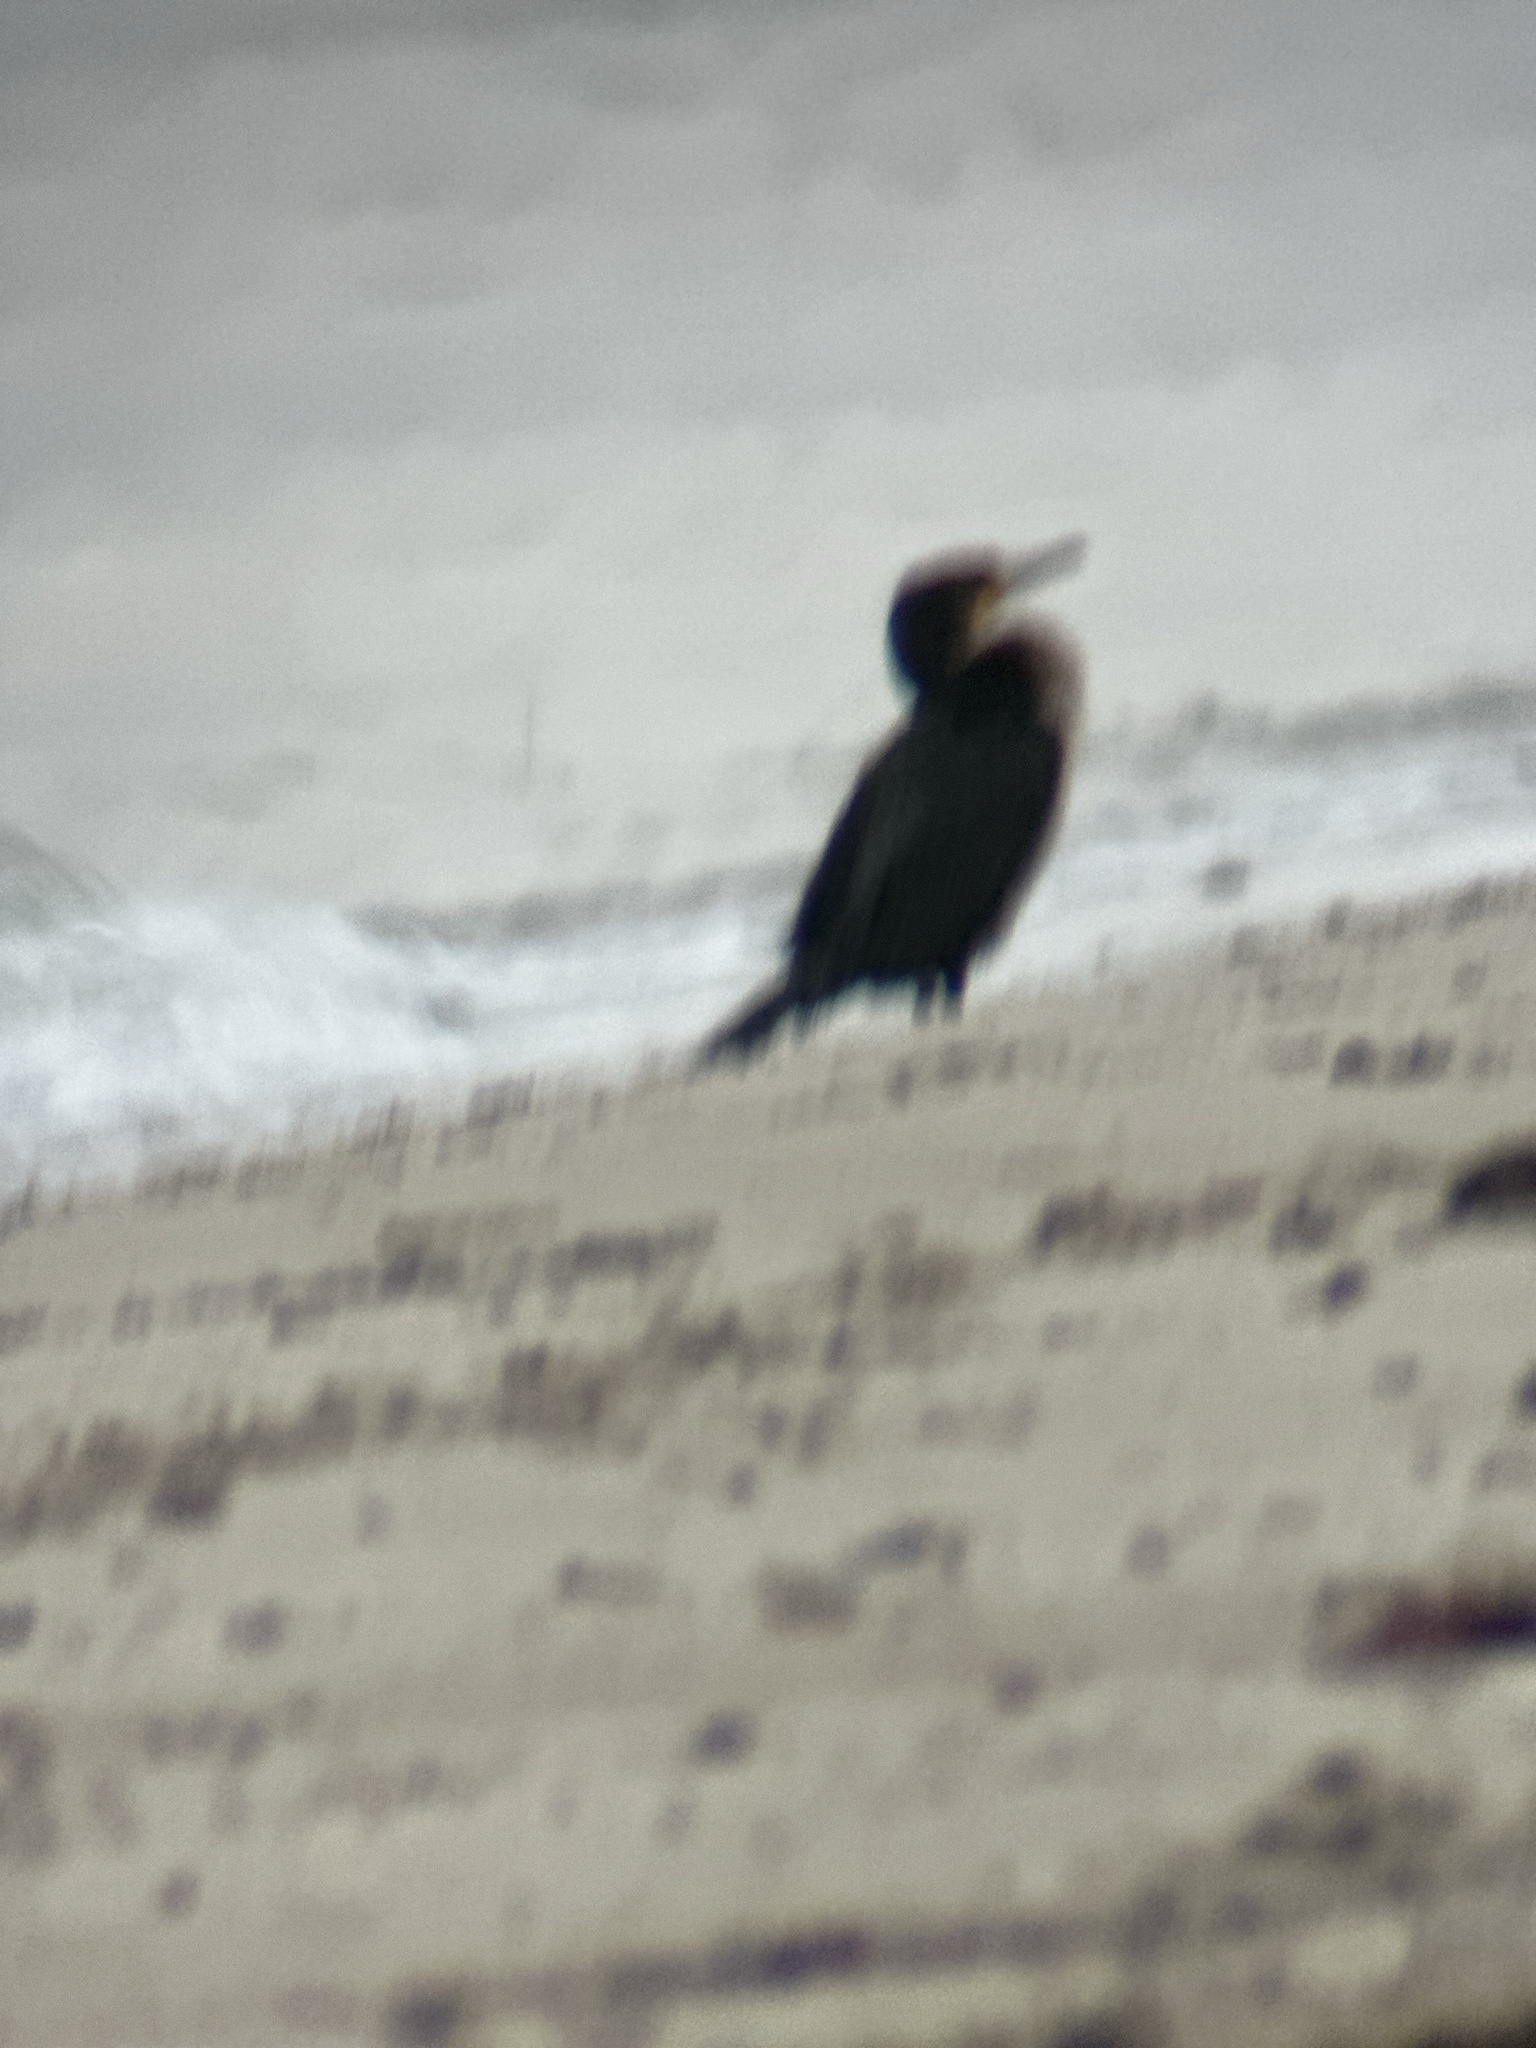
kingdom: Animalia
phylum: Chordata
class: Aves
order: Suliformes
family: Phalacrocoracidae
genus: Phalacrocorax
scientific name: Phalacrocorax carbo
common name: Great cormorant
